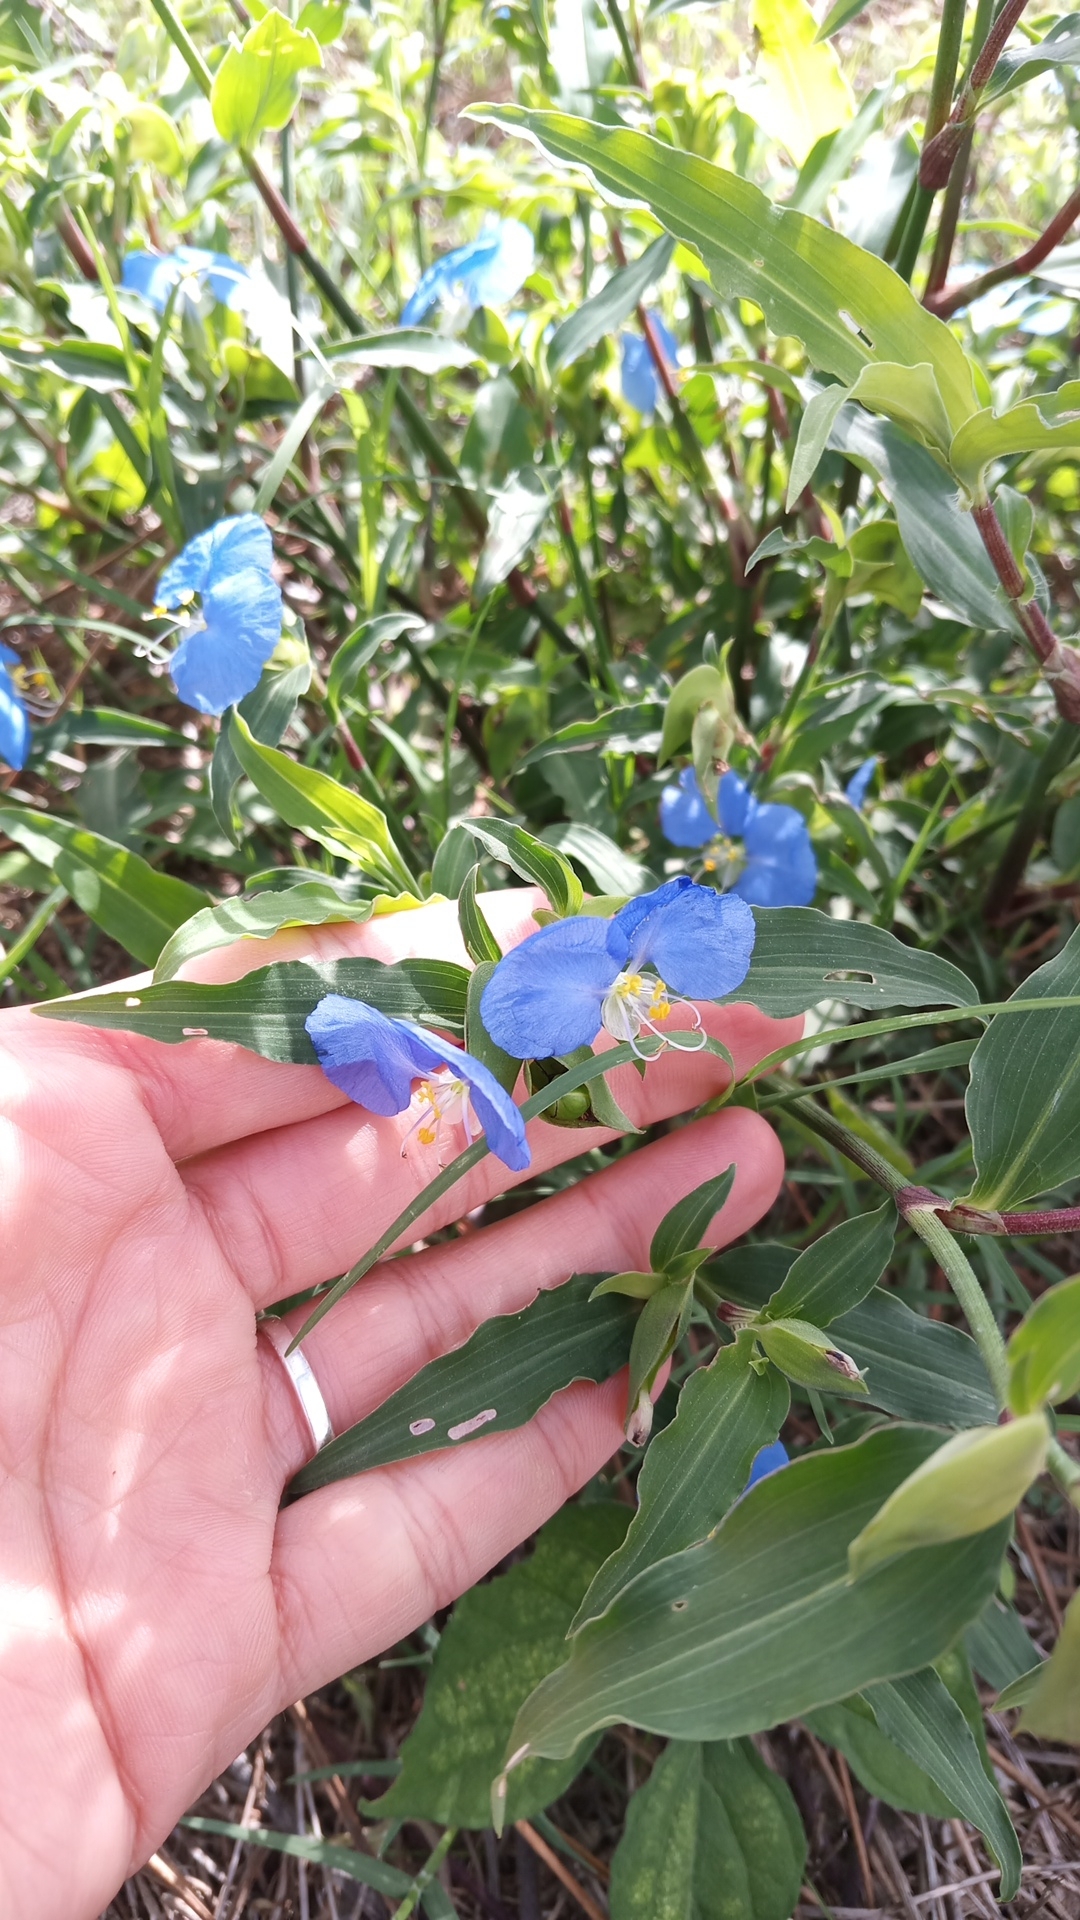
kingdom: Plantae
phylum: Tracheophyta
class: Liliopsida
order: Commelinales
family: Commelinaceae
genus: Commelina
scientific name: Commelina erecta
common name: Blousel blommetjie
